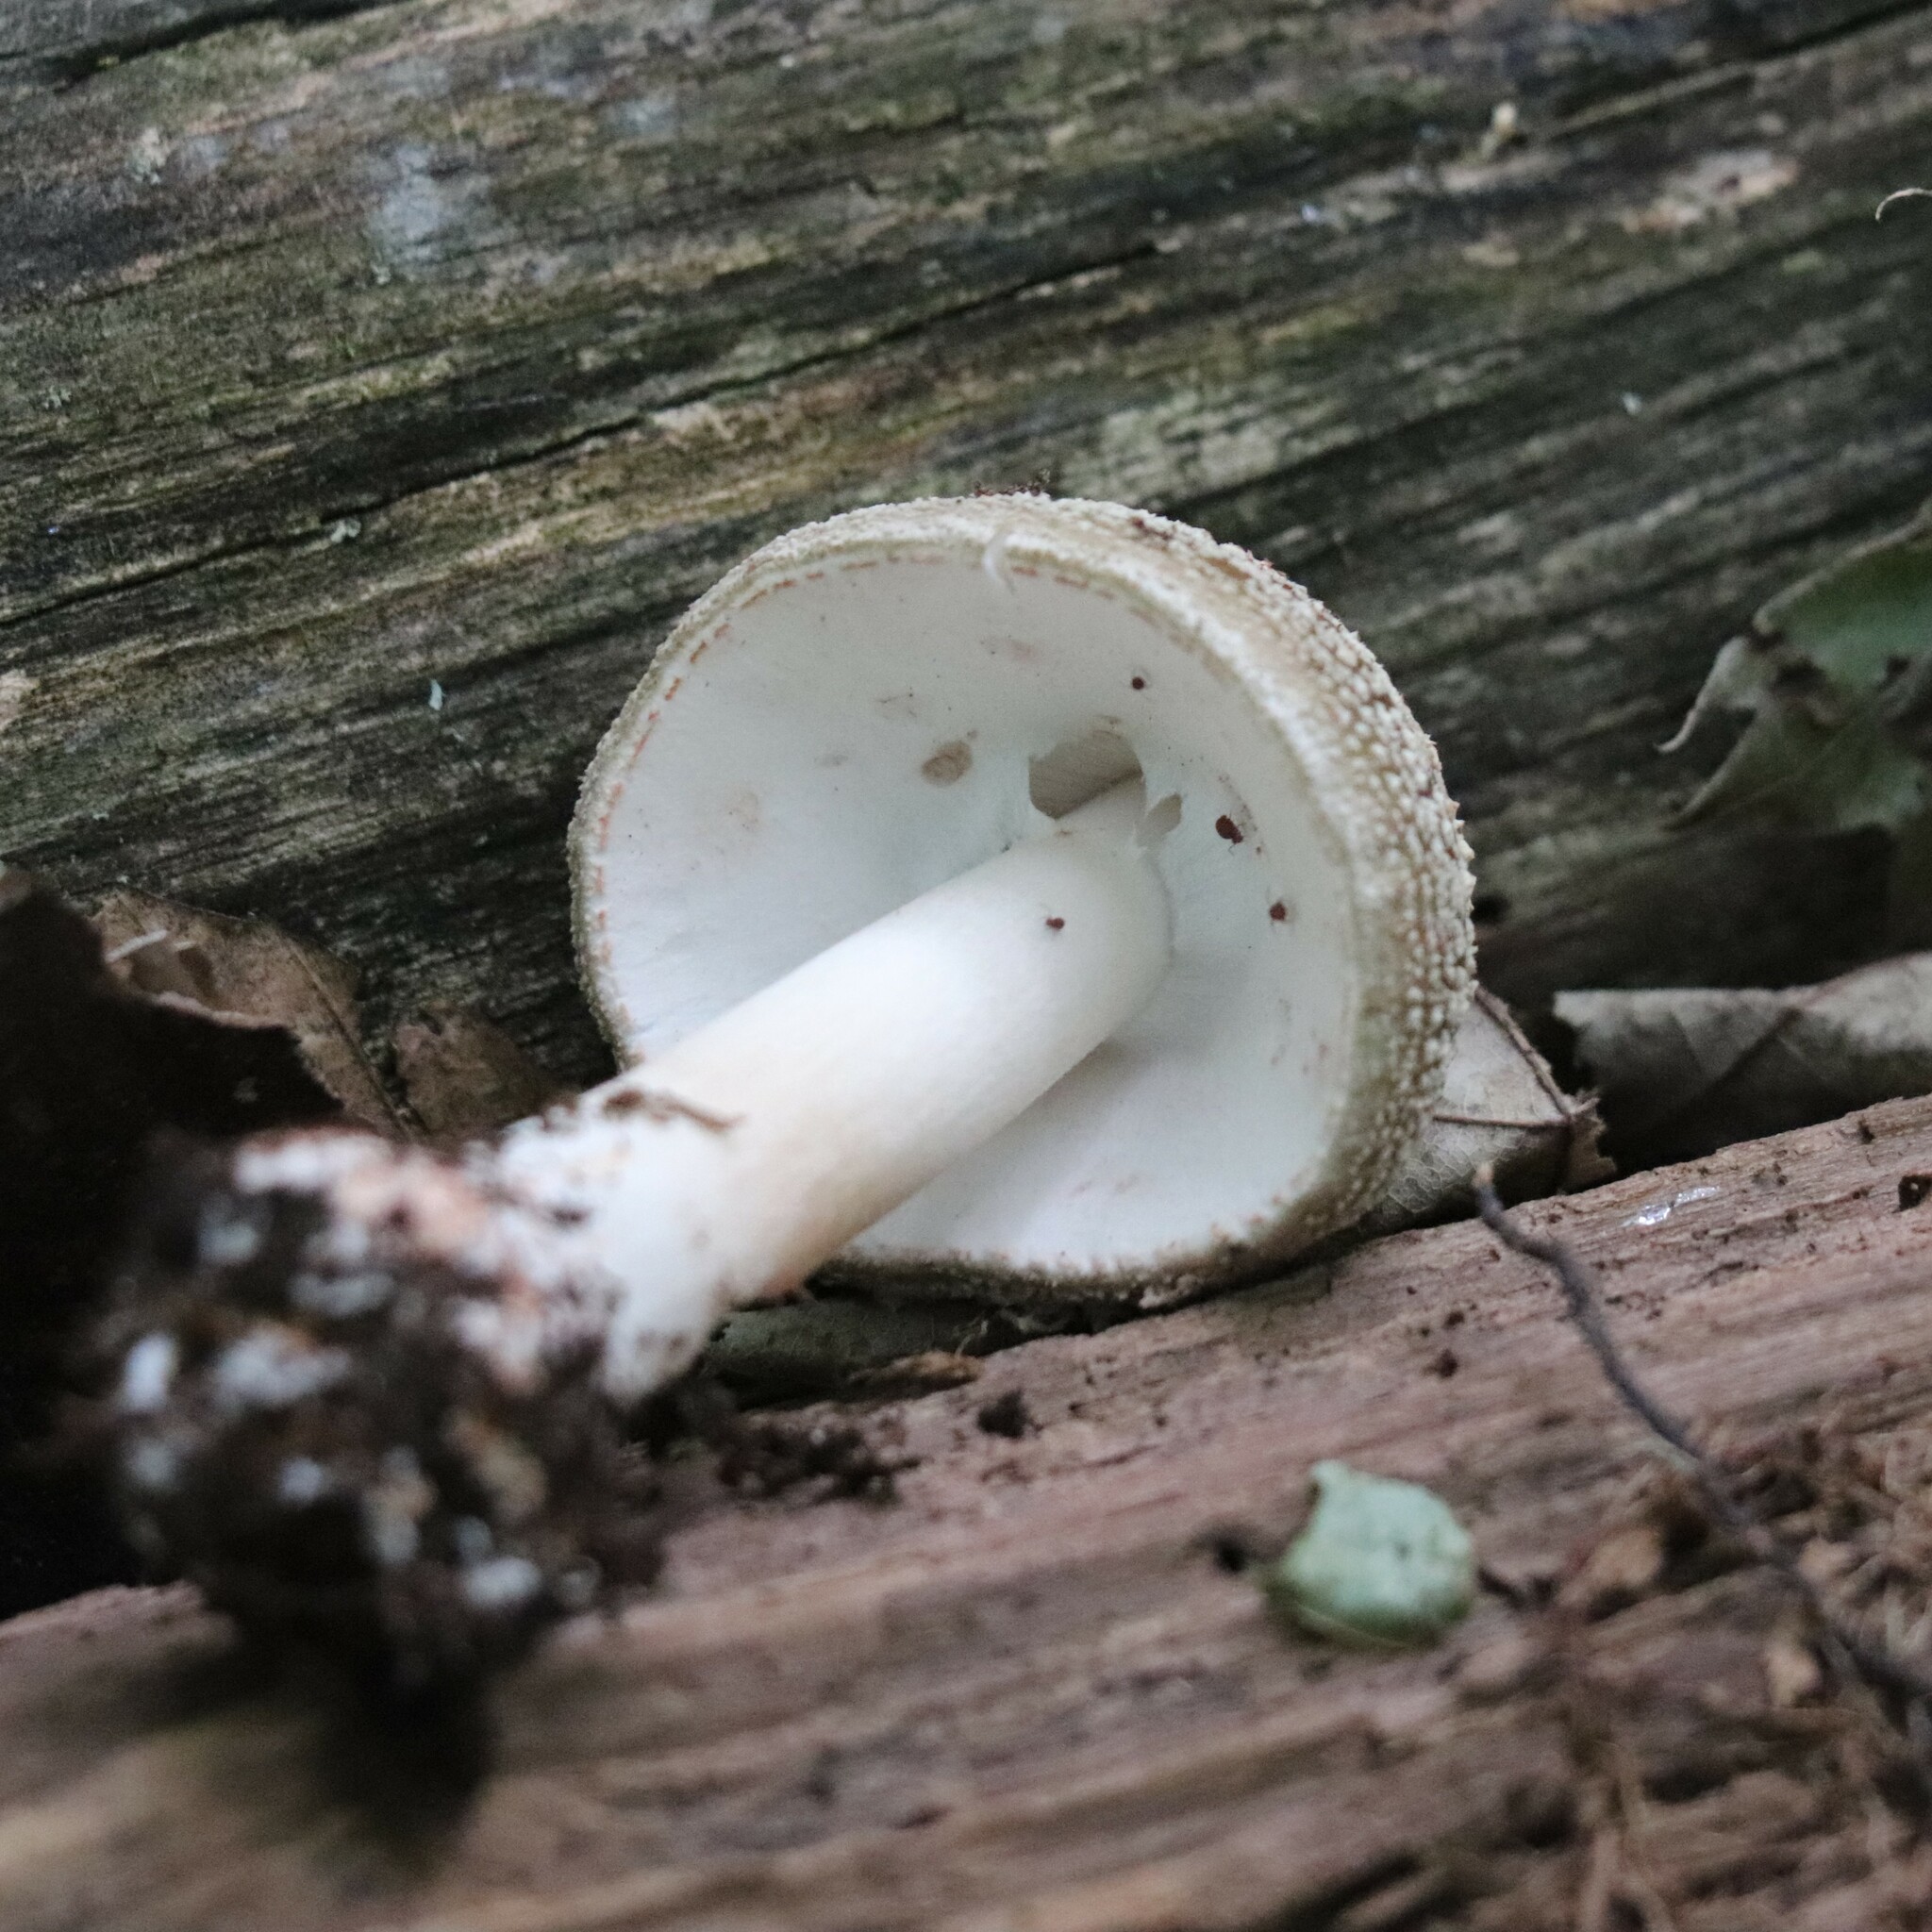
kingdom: Fungi
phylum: Basidiomycota
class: Agaricomycetes
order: Agaricales
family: Amanitaceae
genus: Amanita
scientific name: Amanita rubescens
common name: Blusher
